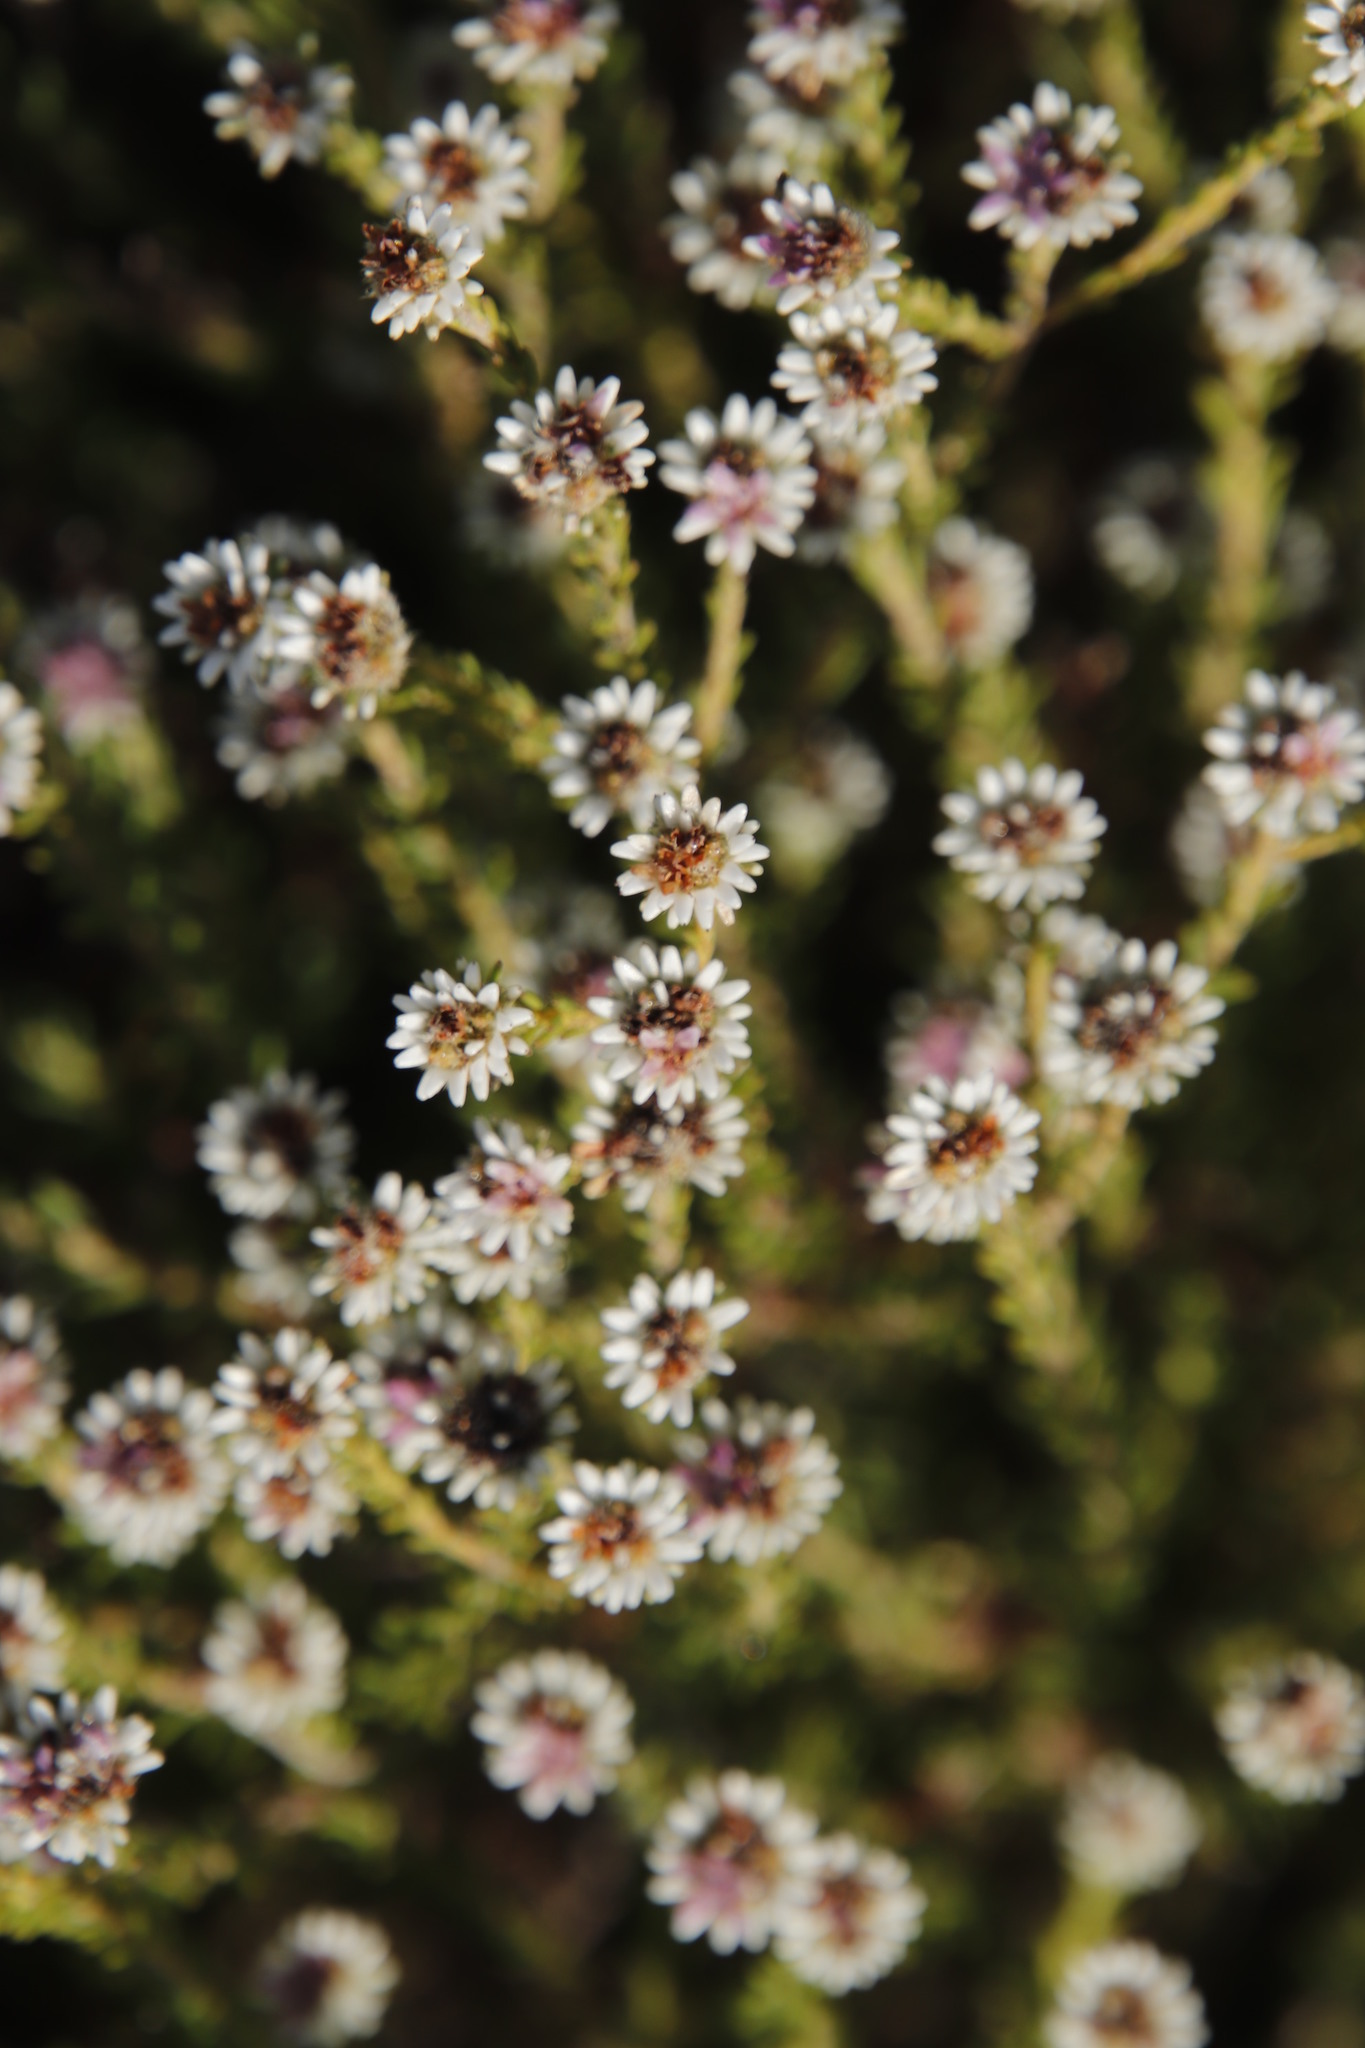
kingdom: Plantae
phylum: Tracheophyta
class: Magnoliopsida
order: Bruniales
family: Bruniaceae
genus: Staavia
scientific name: Staavia radiata
